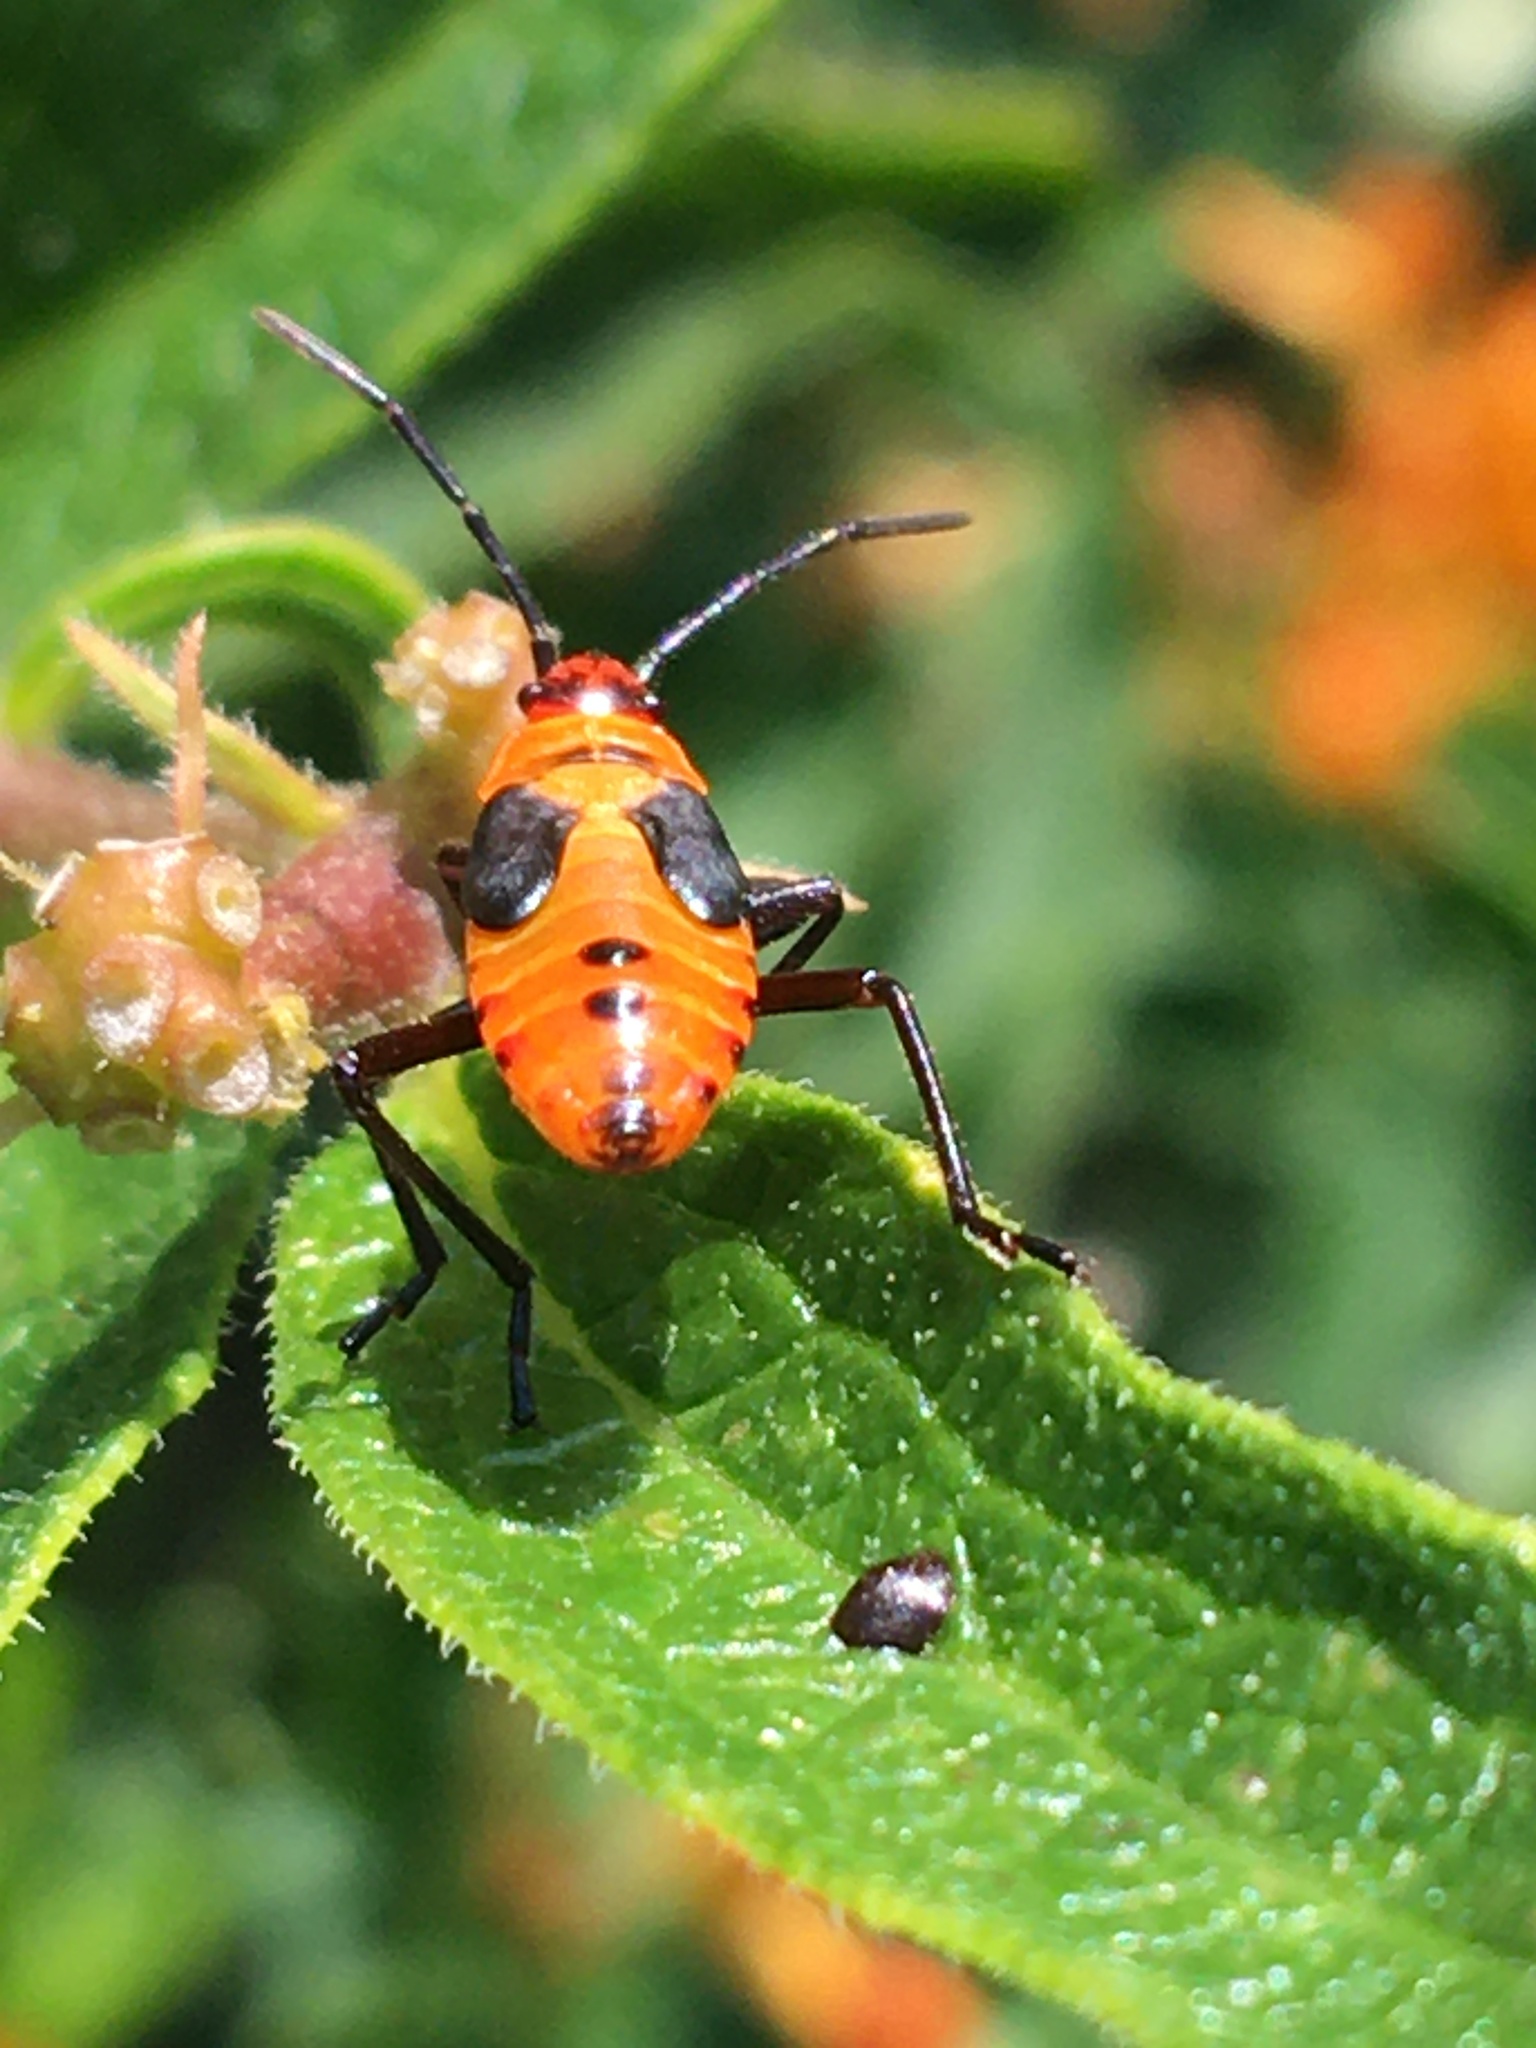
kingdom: Animalia
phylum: Arthropoda
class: Insecta
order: Hemiptera
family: Lygaeidae
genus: Oncopeltus
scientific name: Oncopeltus fasciatus
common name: Large milkweed bug
